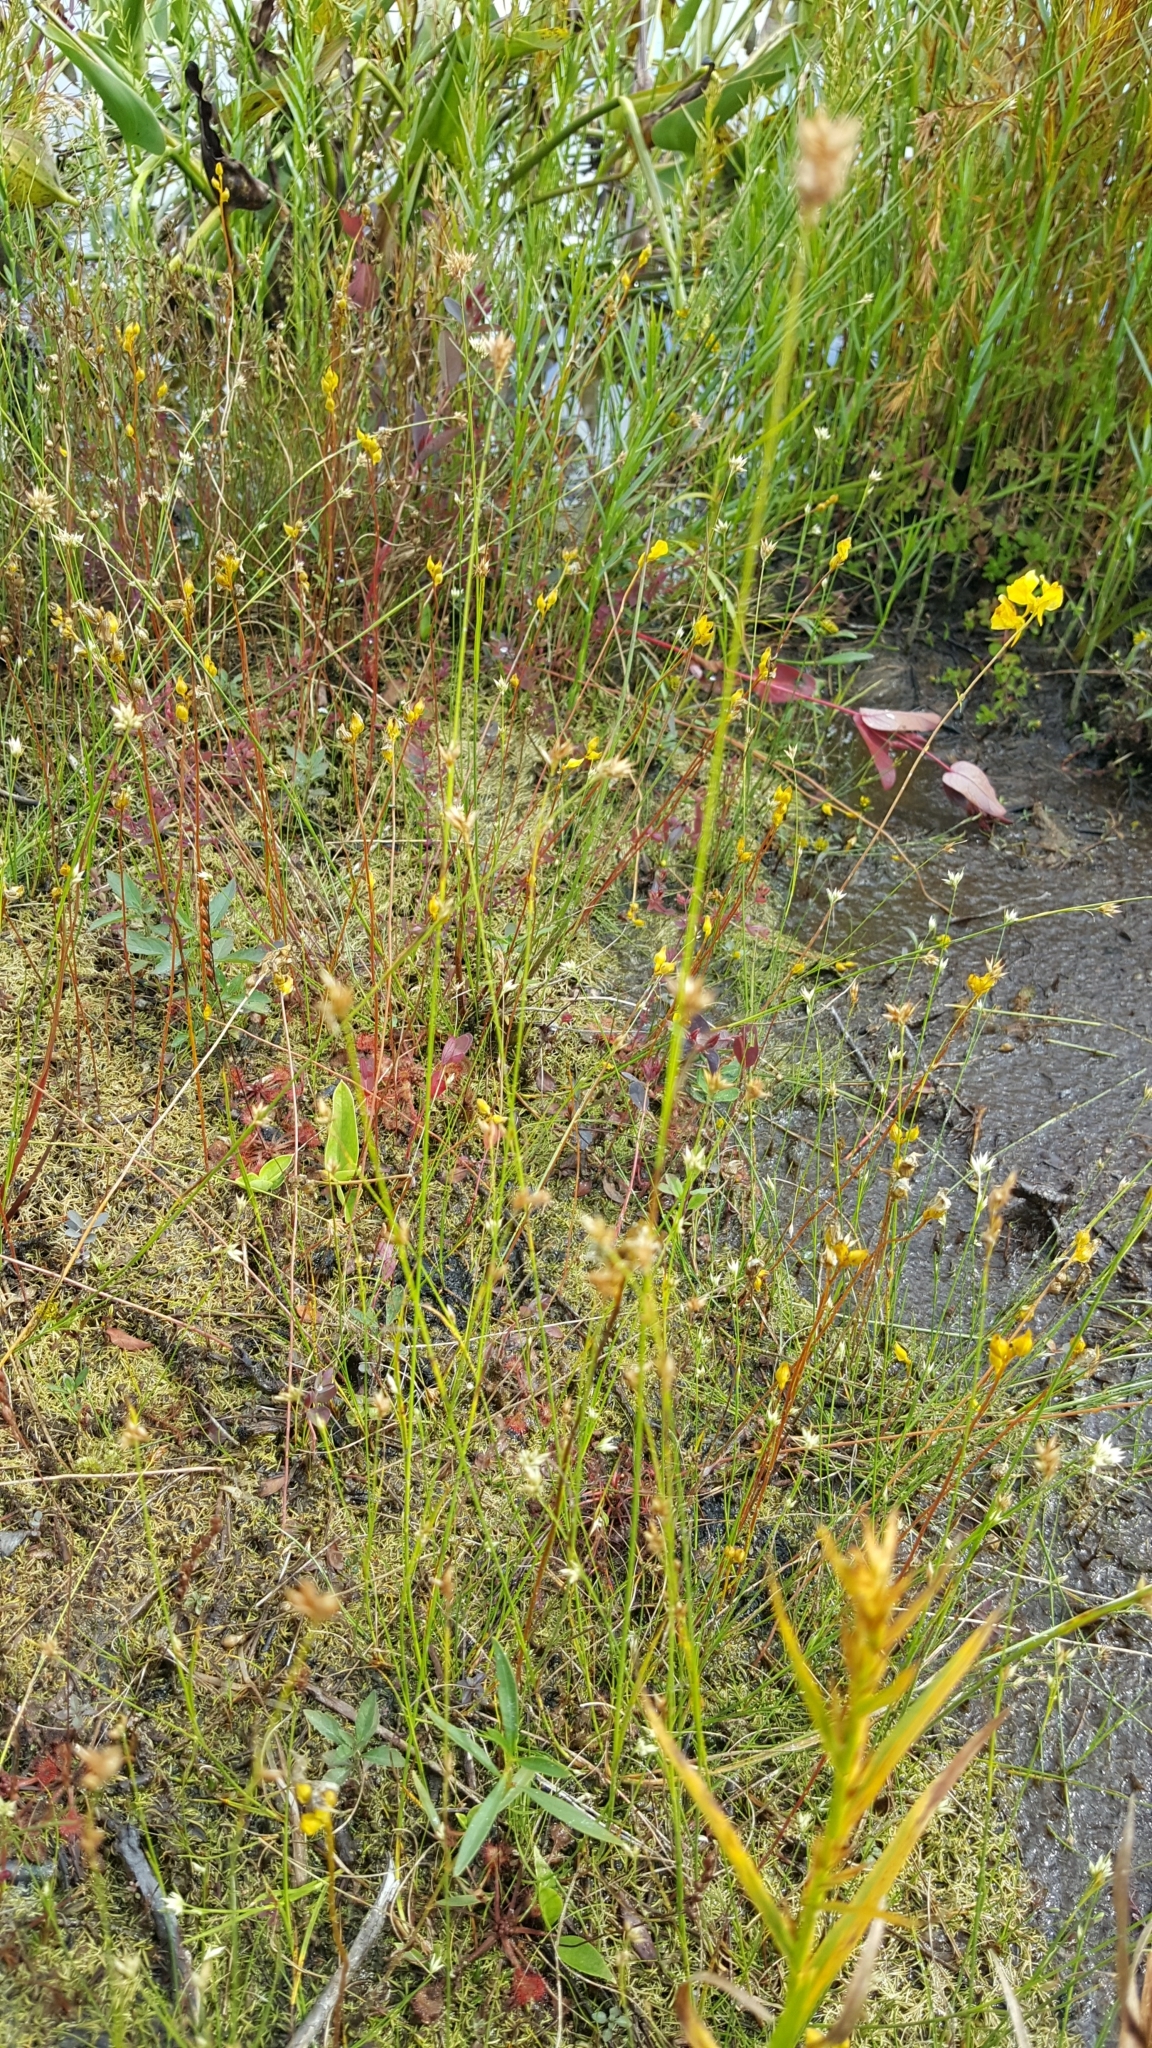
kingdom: Plantae
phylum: Tracheophyta
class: Magnoliopsida
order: Lamiales
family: Lentibulariaceae
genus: Utricularia
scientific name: Utricularia cornuta
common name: Horned bladderwort
